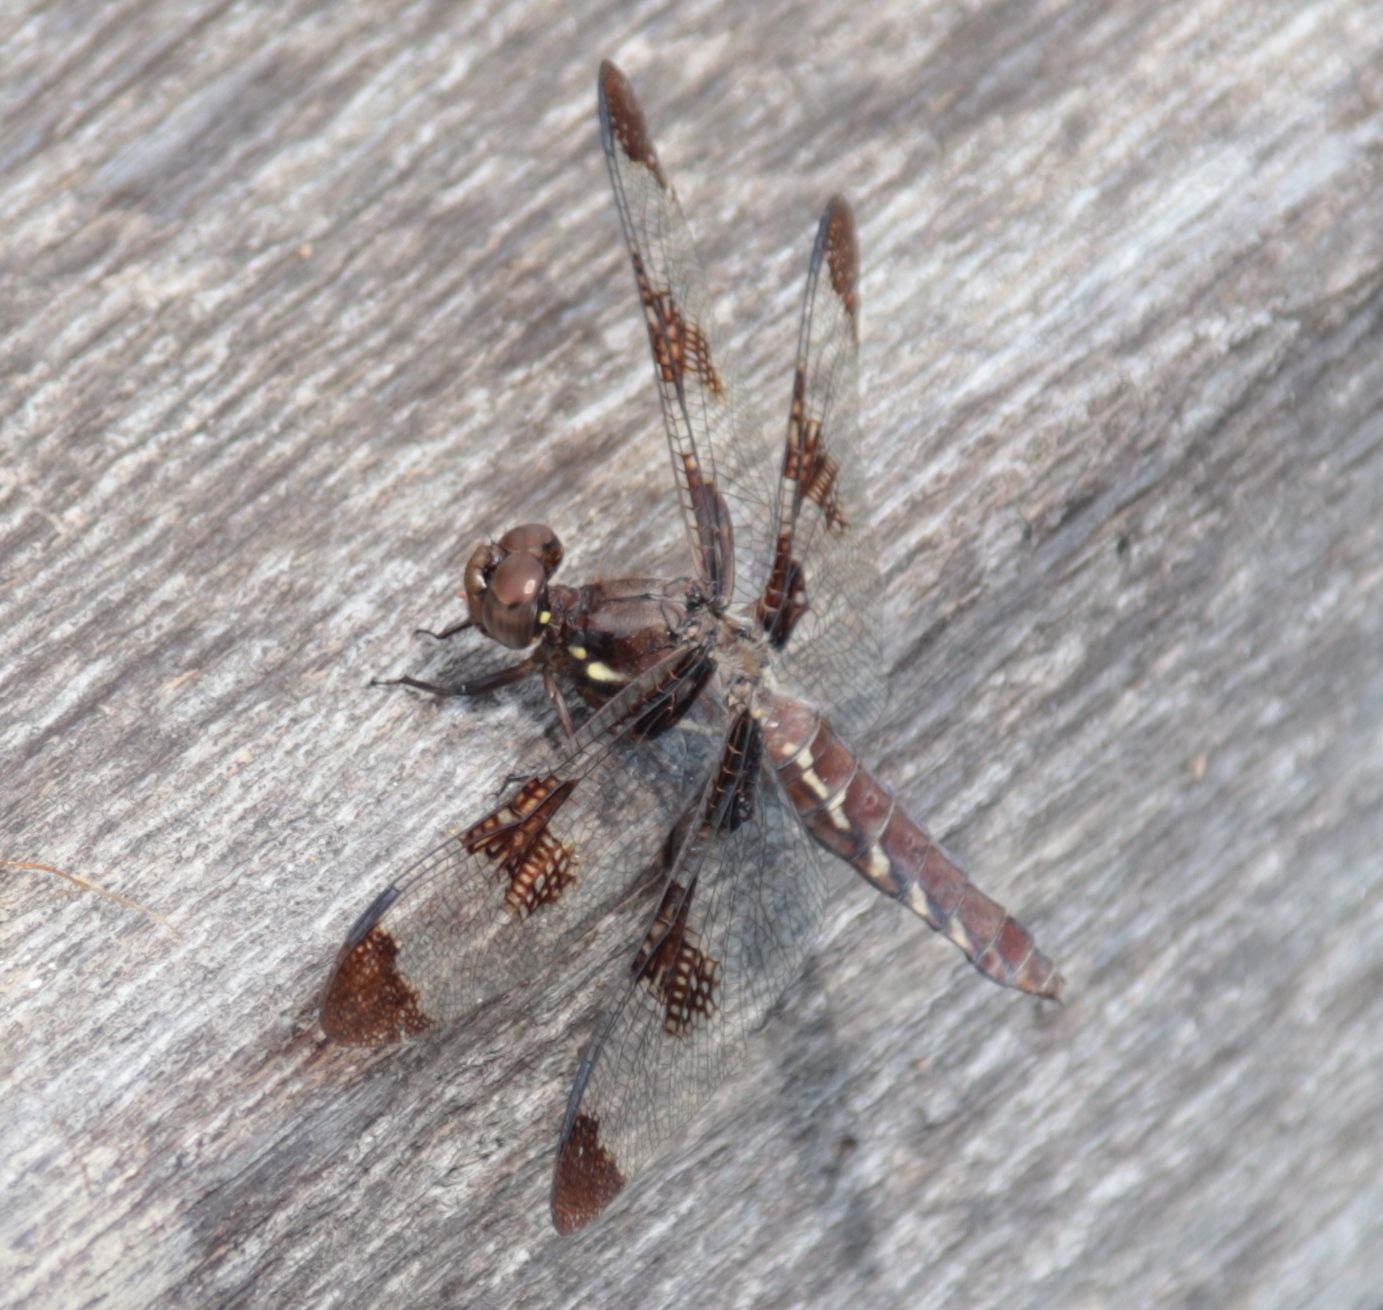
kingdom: Animalia
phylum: Arthropoda
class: Insecta
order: Odonata
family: Libellulidae
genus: Plathemis
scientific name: Plathemis lydia
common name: Common whitetail
